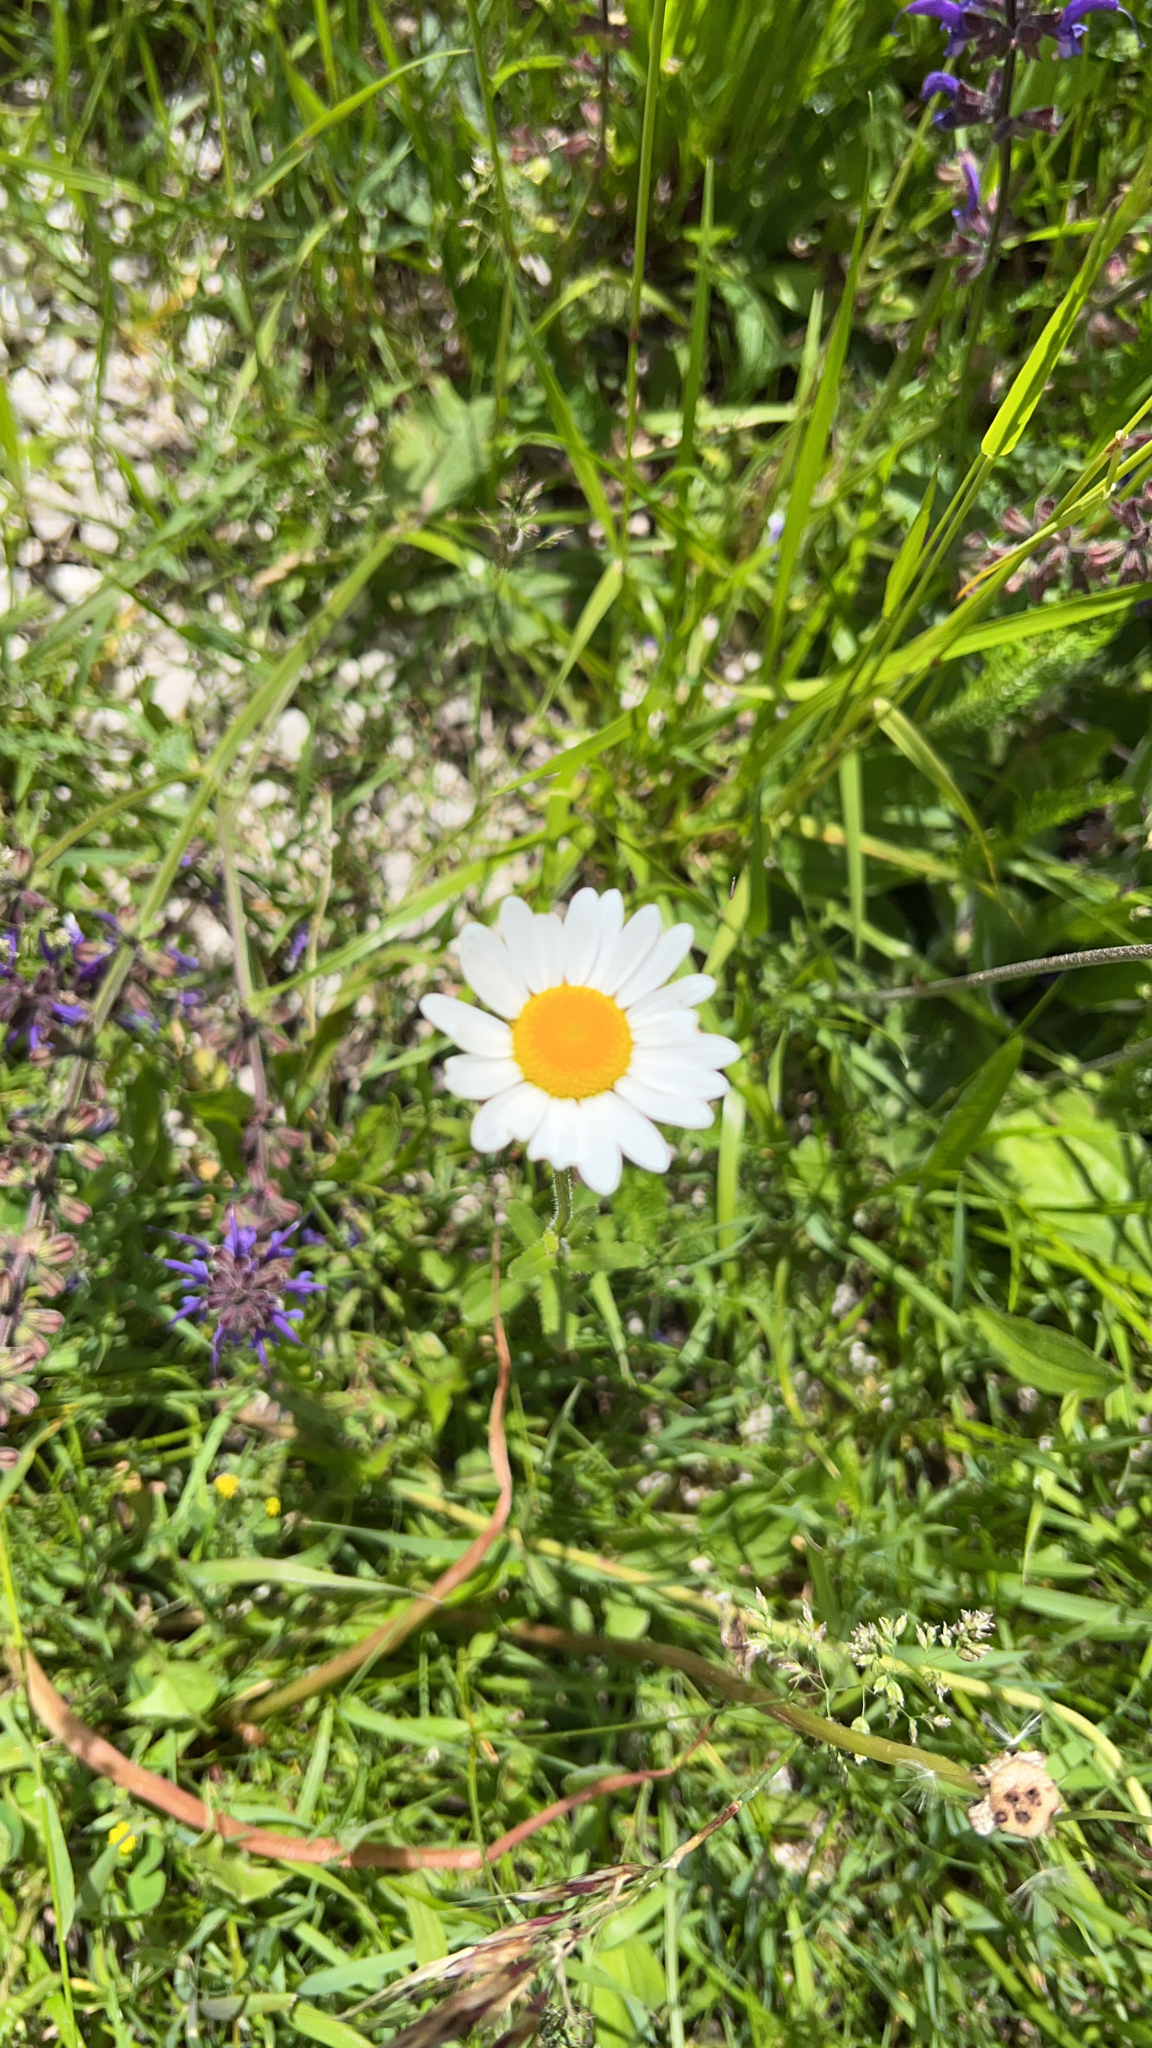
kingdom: Plantae
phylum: Tracheophyta
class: Magnoliopsida
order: Asterales
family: Asteraceae
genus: Leucanthemum
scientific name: Leucanthemum vulgare
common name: Oxeye daisy
